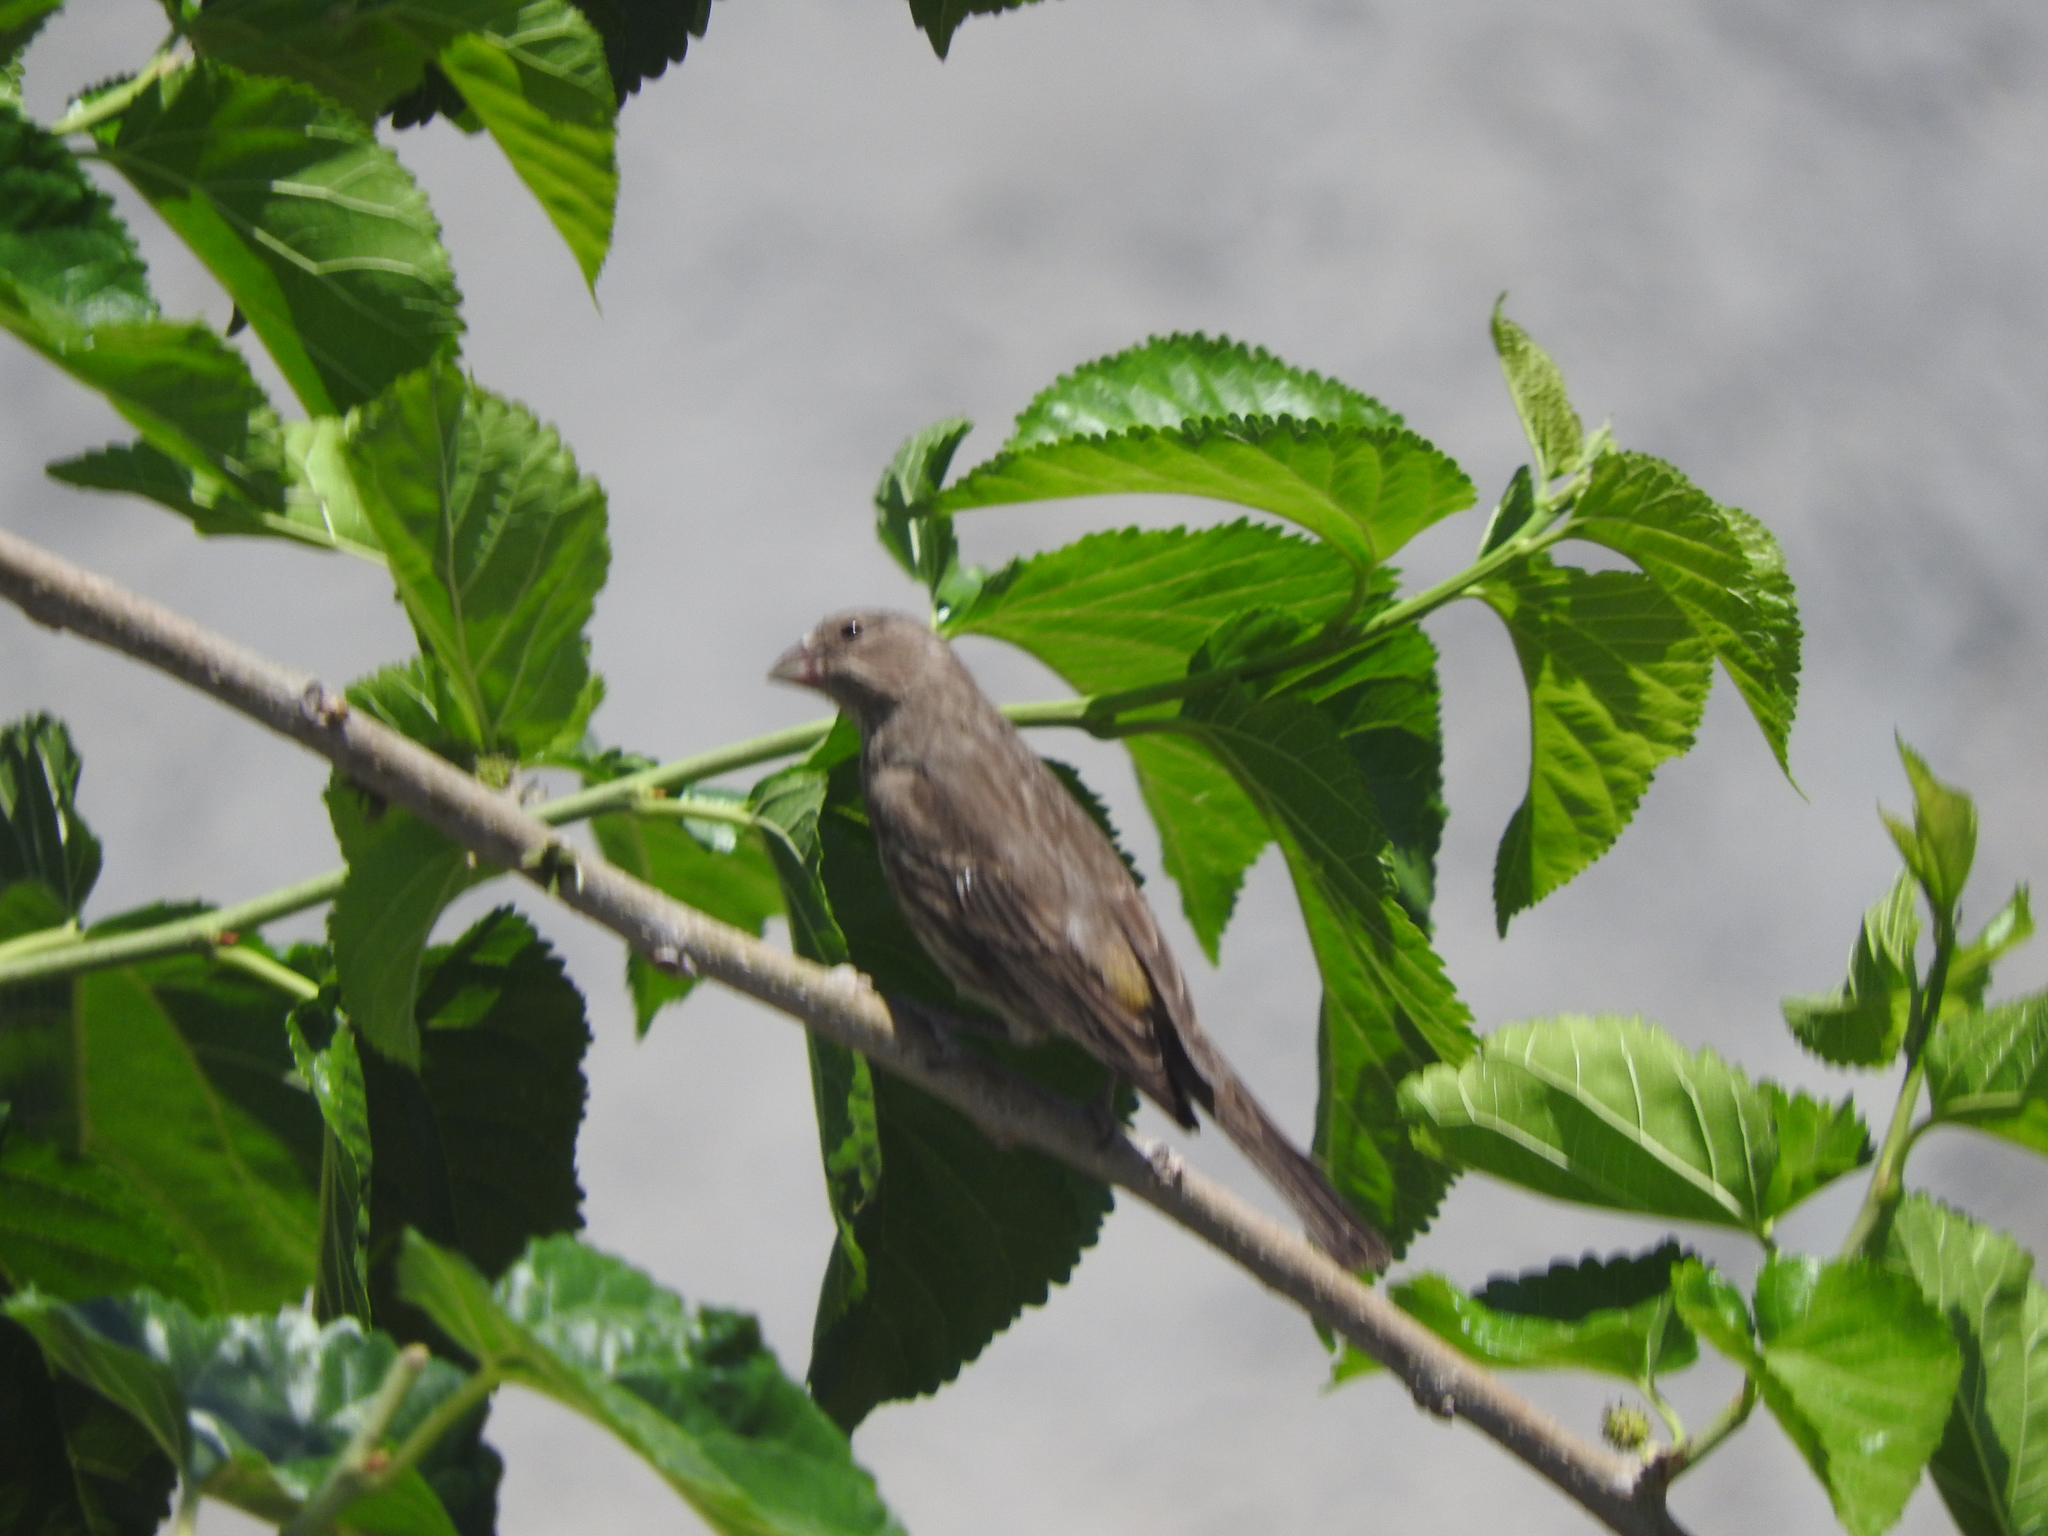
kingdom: Animalia
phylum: Chordata
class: Aves
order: Passeriformes
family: Fringillidae
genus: Haemorhous
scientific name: Haemorhous mexicanus
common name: House finch
